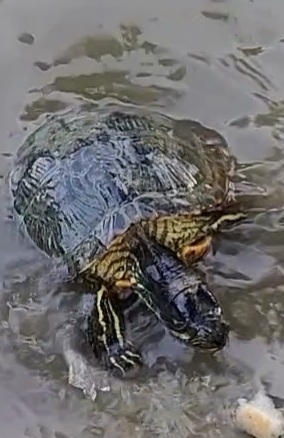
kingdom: Animalia
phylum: Chordata
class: Testudines
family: Emydidae
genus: Trachemys
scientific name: Trachemys scripta
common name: Slider
